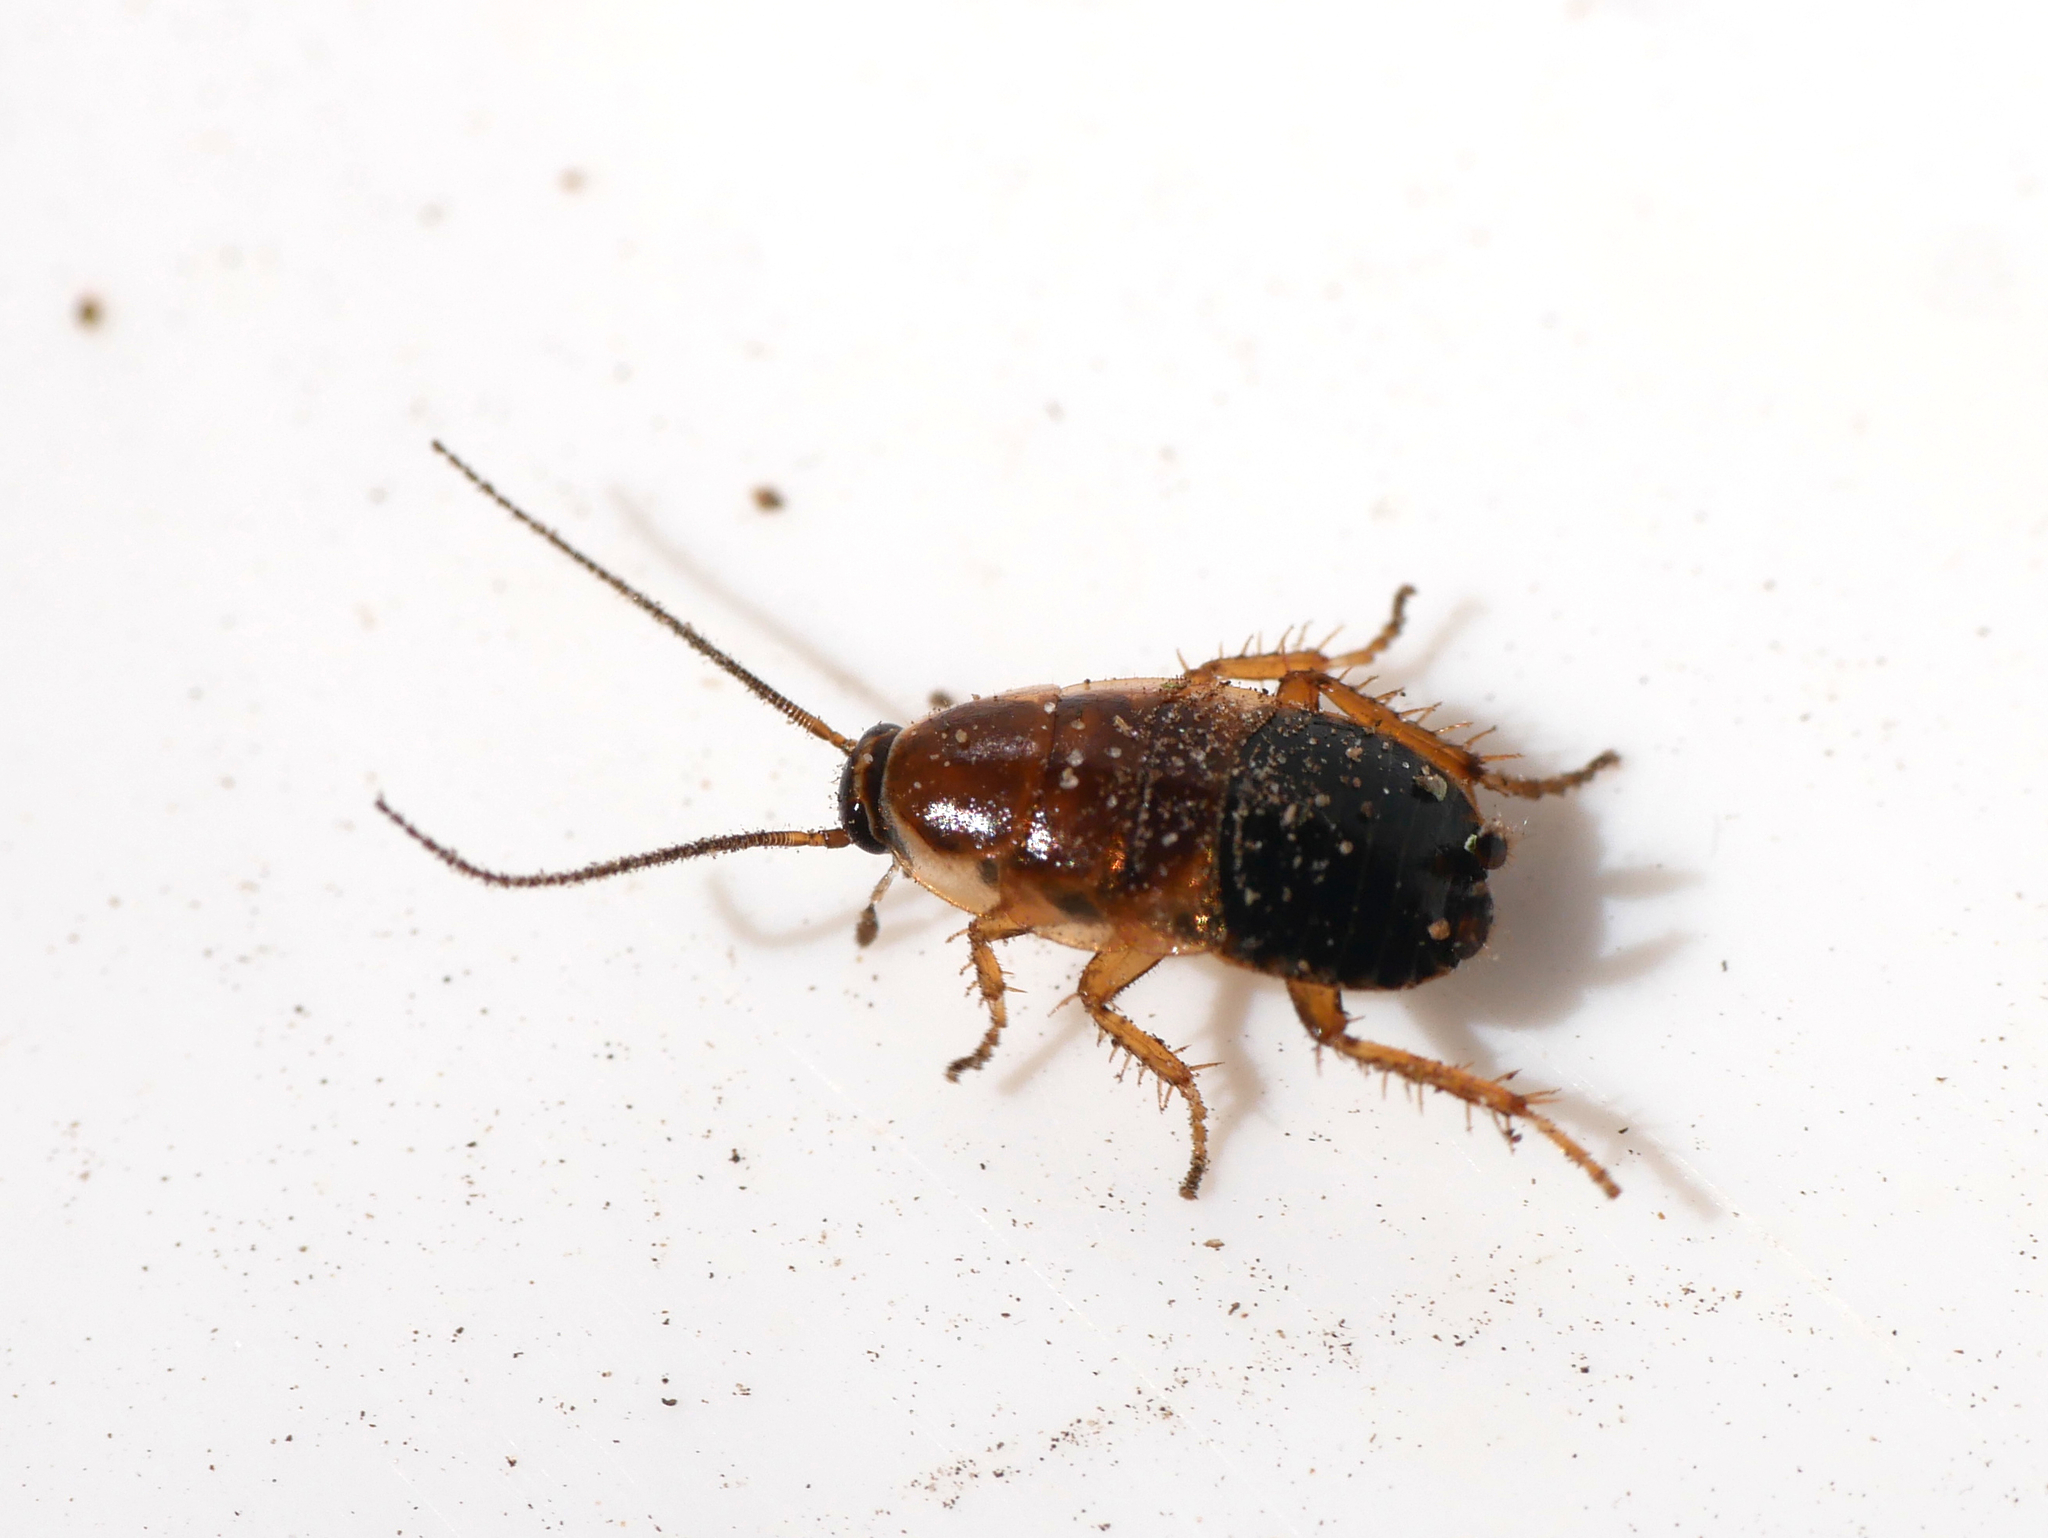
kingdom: Animalia
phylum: Arthropoda
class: Insecta
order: Blattodea
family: Ectobiidae
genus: Ectobius
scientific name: Ectobius sylvestris
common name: Forest cockroach
